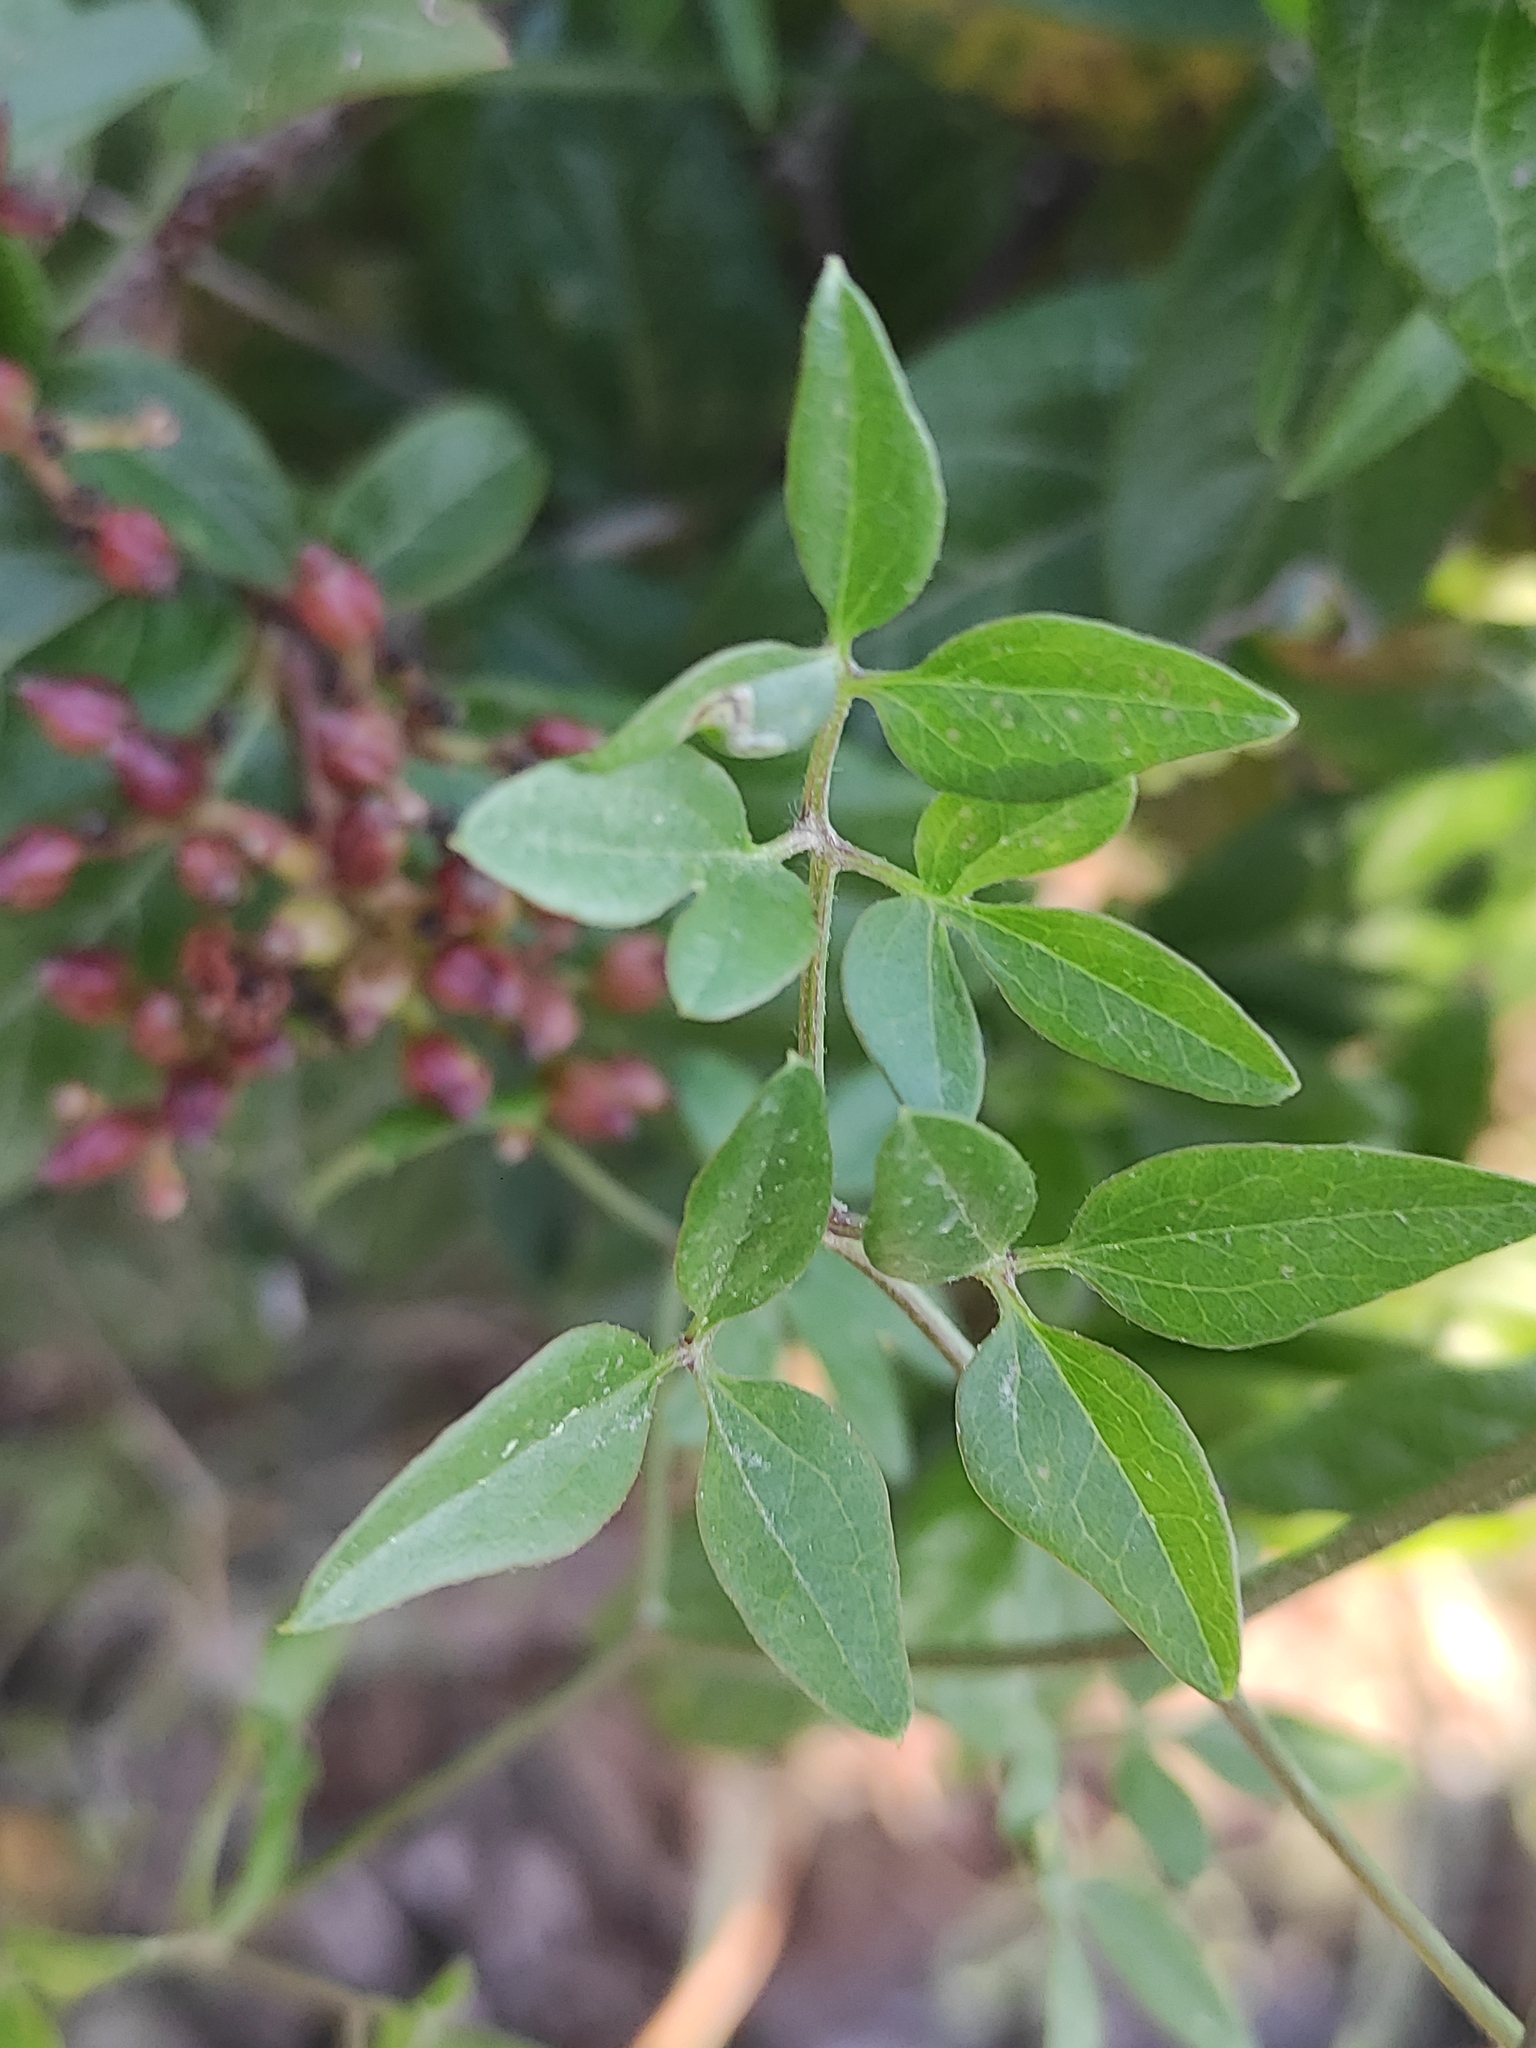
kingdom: Plantae
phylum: Tracheophyta
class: Magnoliopsida
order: Ranunculales
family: Ranunculaceae
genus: Clematis
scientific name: Clematis flammula
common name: Virgin's-bower
